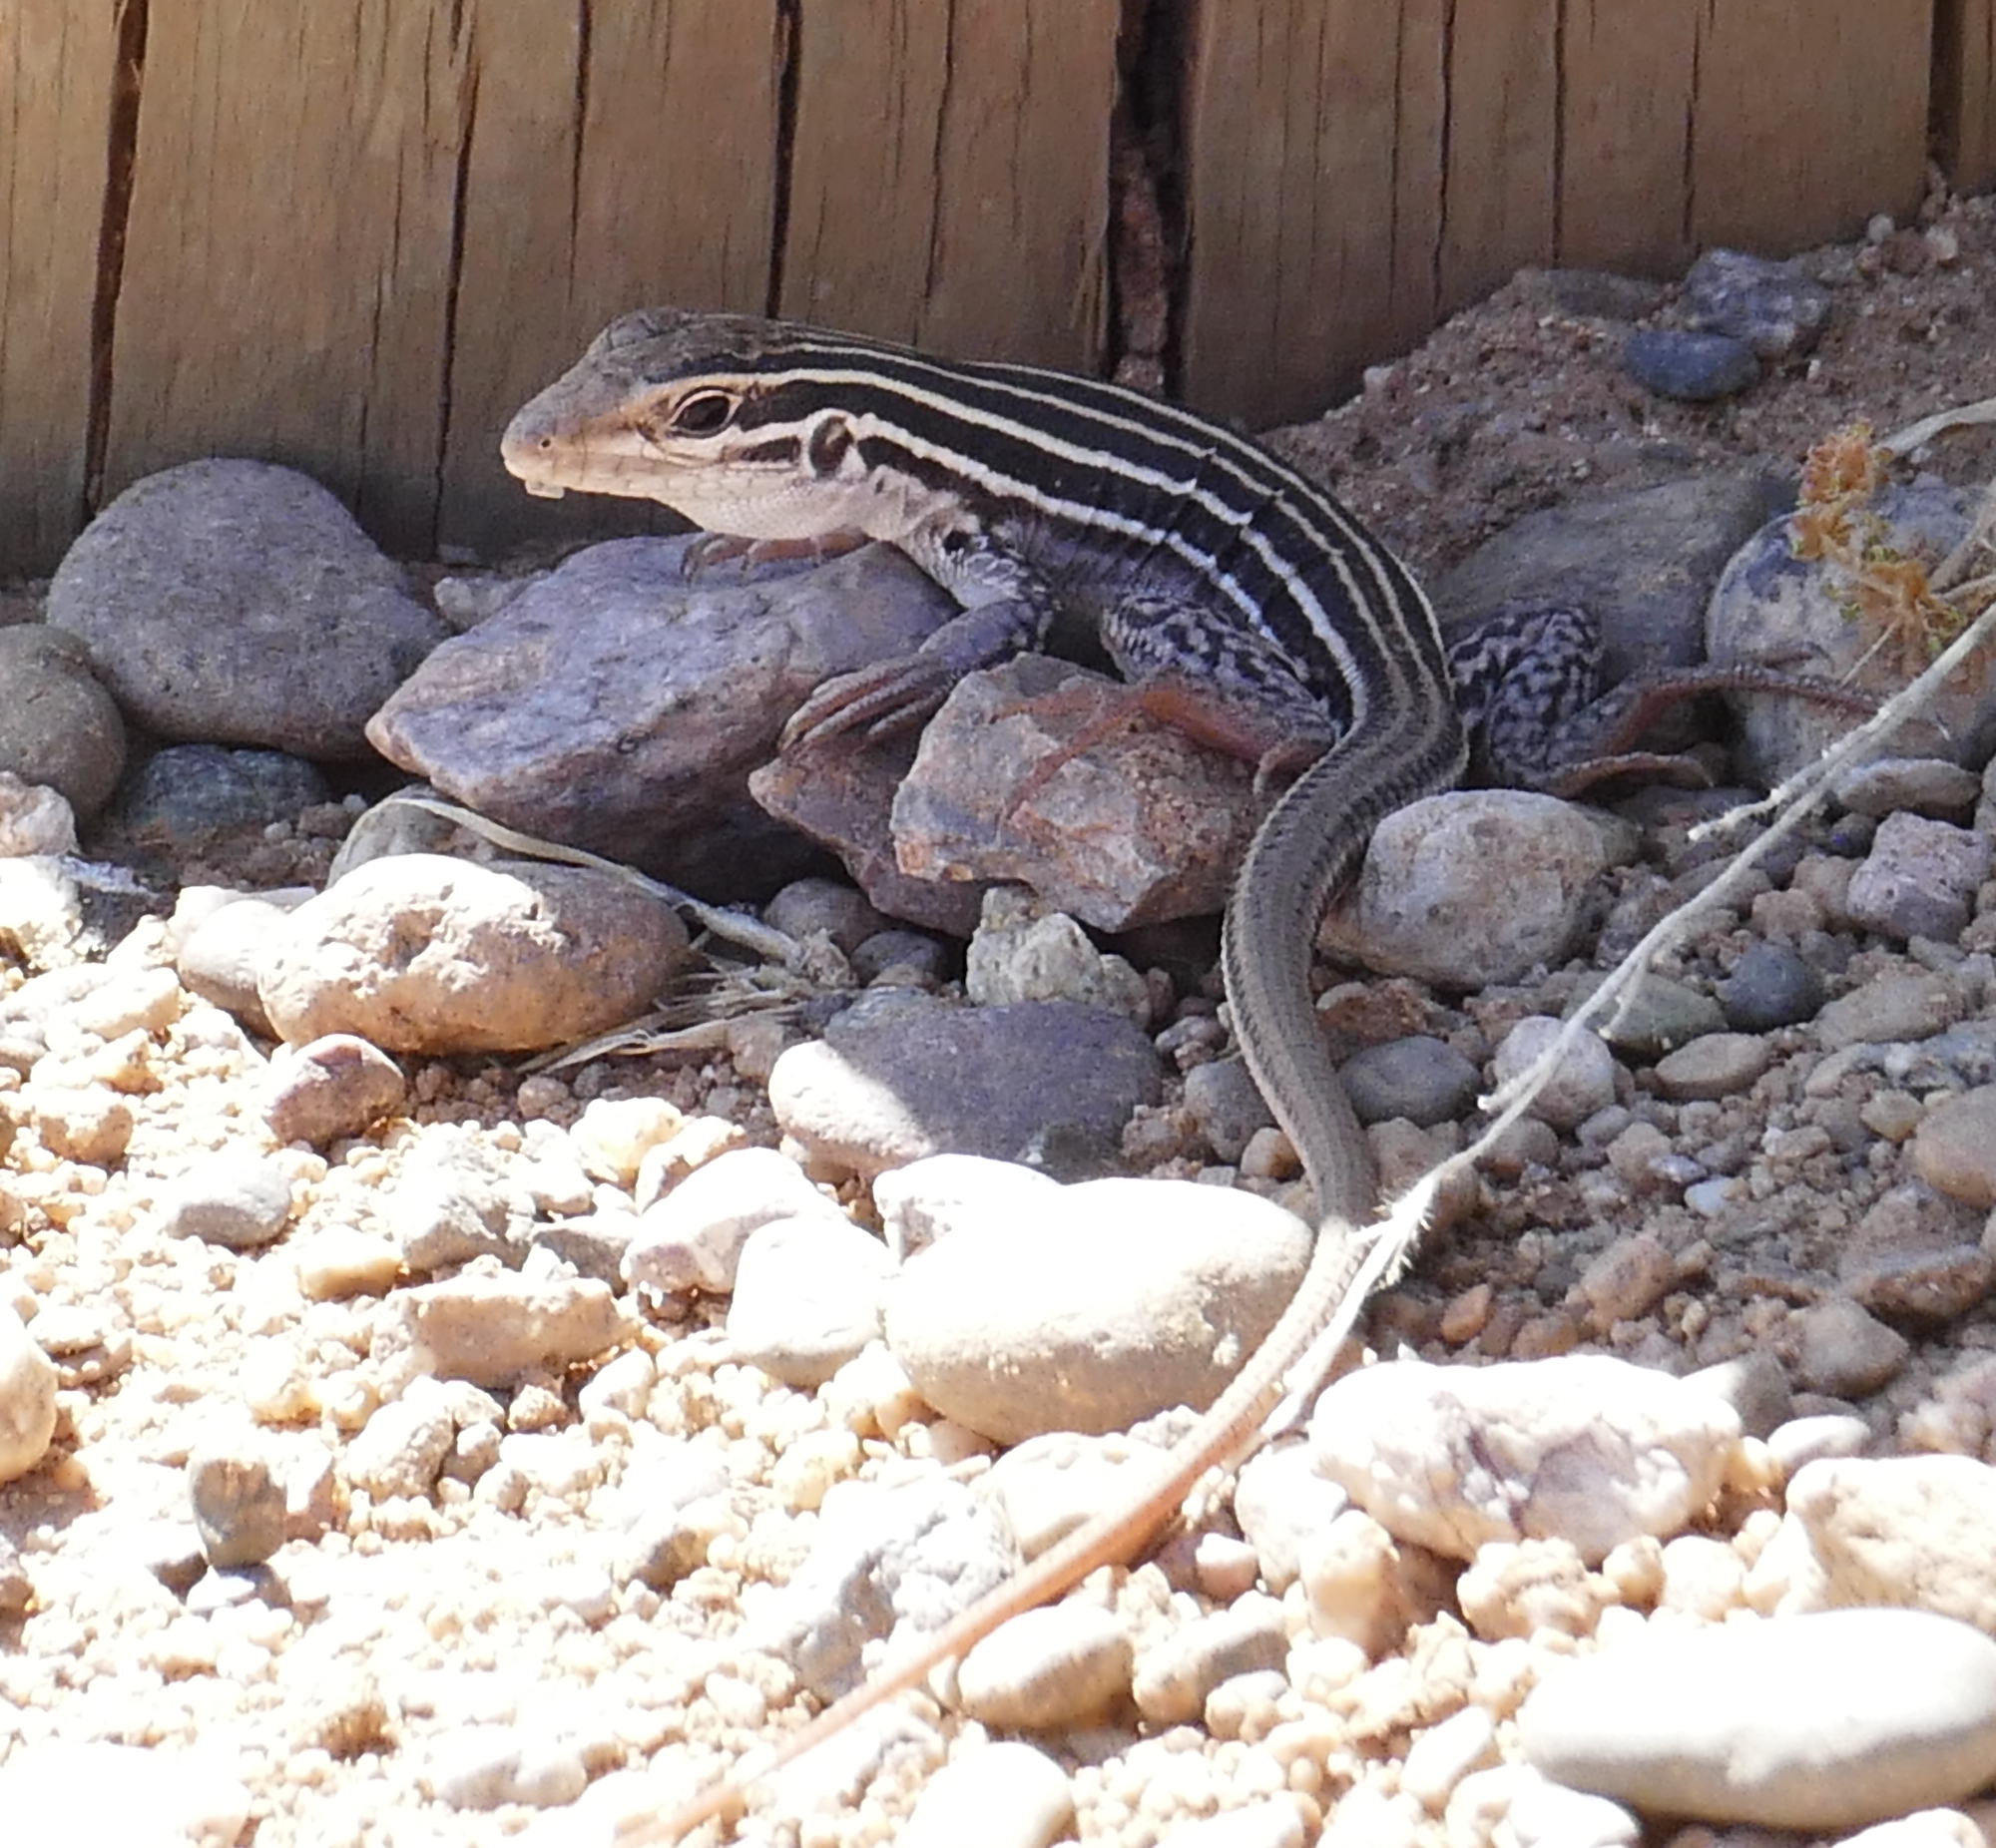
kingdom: Animalia
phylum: Chordata
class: Squamata
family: Teiidae
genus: Aspidoscelis
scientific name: Aspidoscelis uniparens
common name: Desert grassland whiptail
